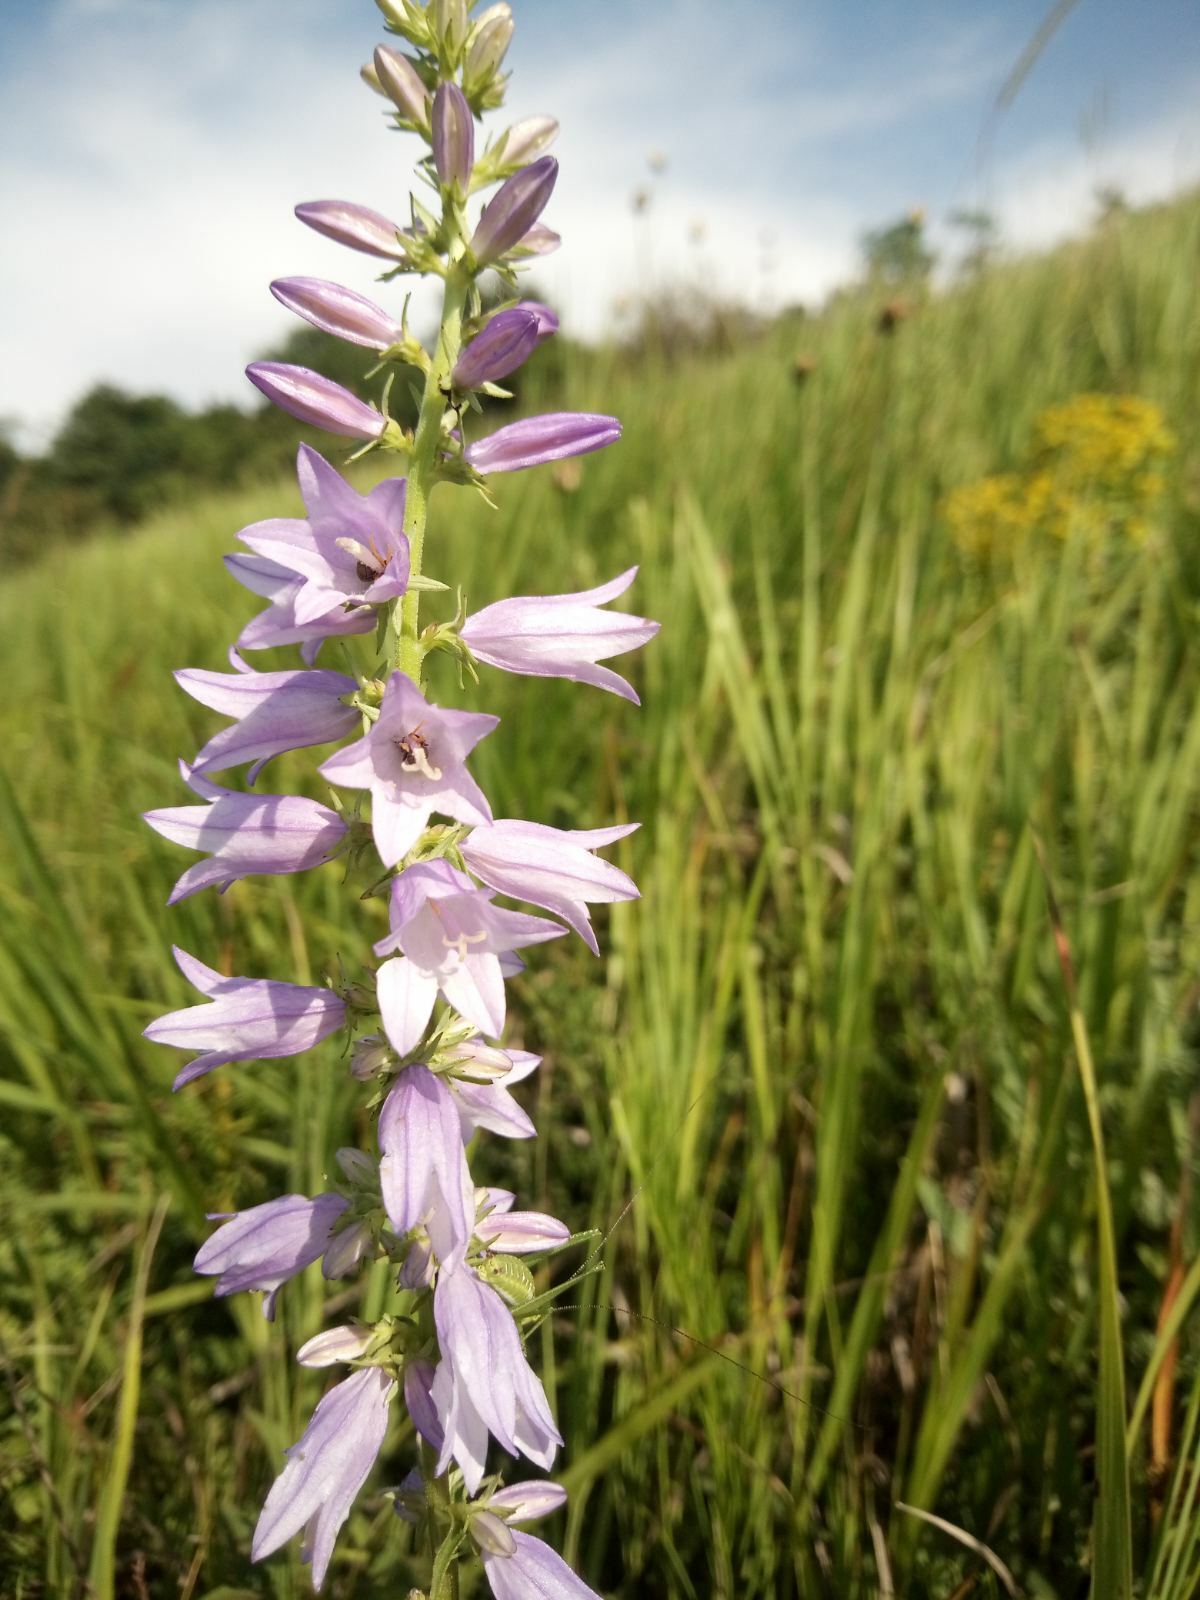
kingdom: Plantae
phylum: Tracheophyta
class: Magnoliopsida
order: Asterales
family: Campanulaceae
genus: Campanula
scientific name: Campanula bononiensis
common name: Pale bellflower
